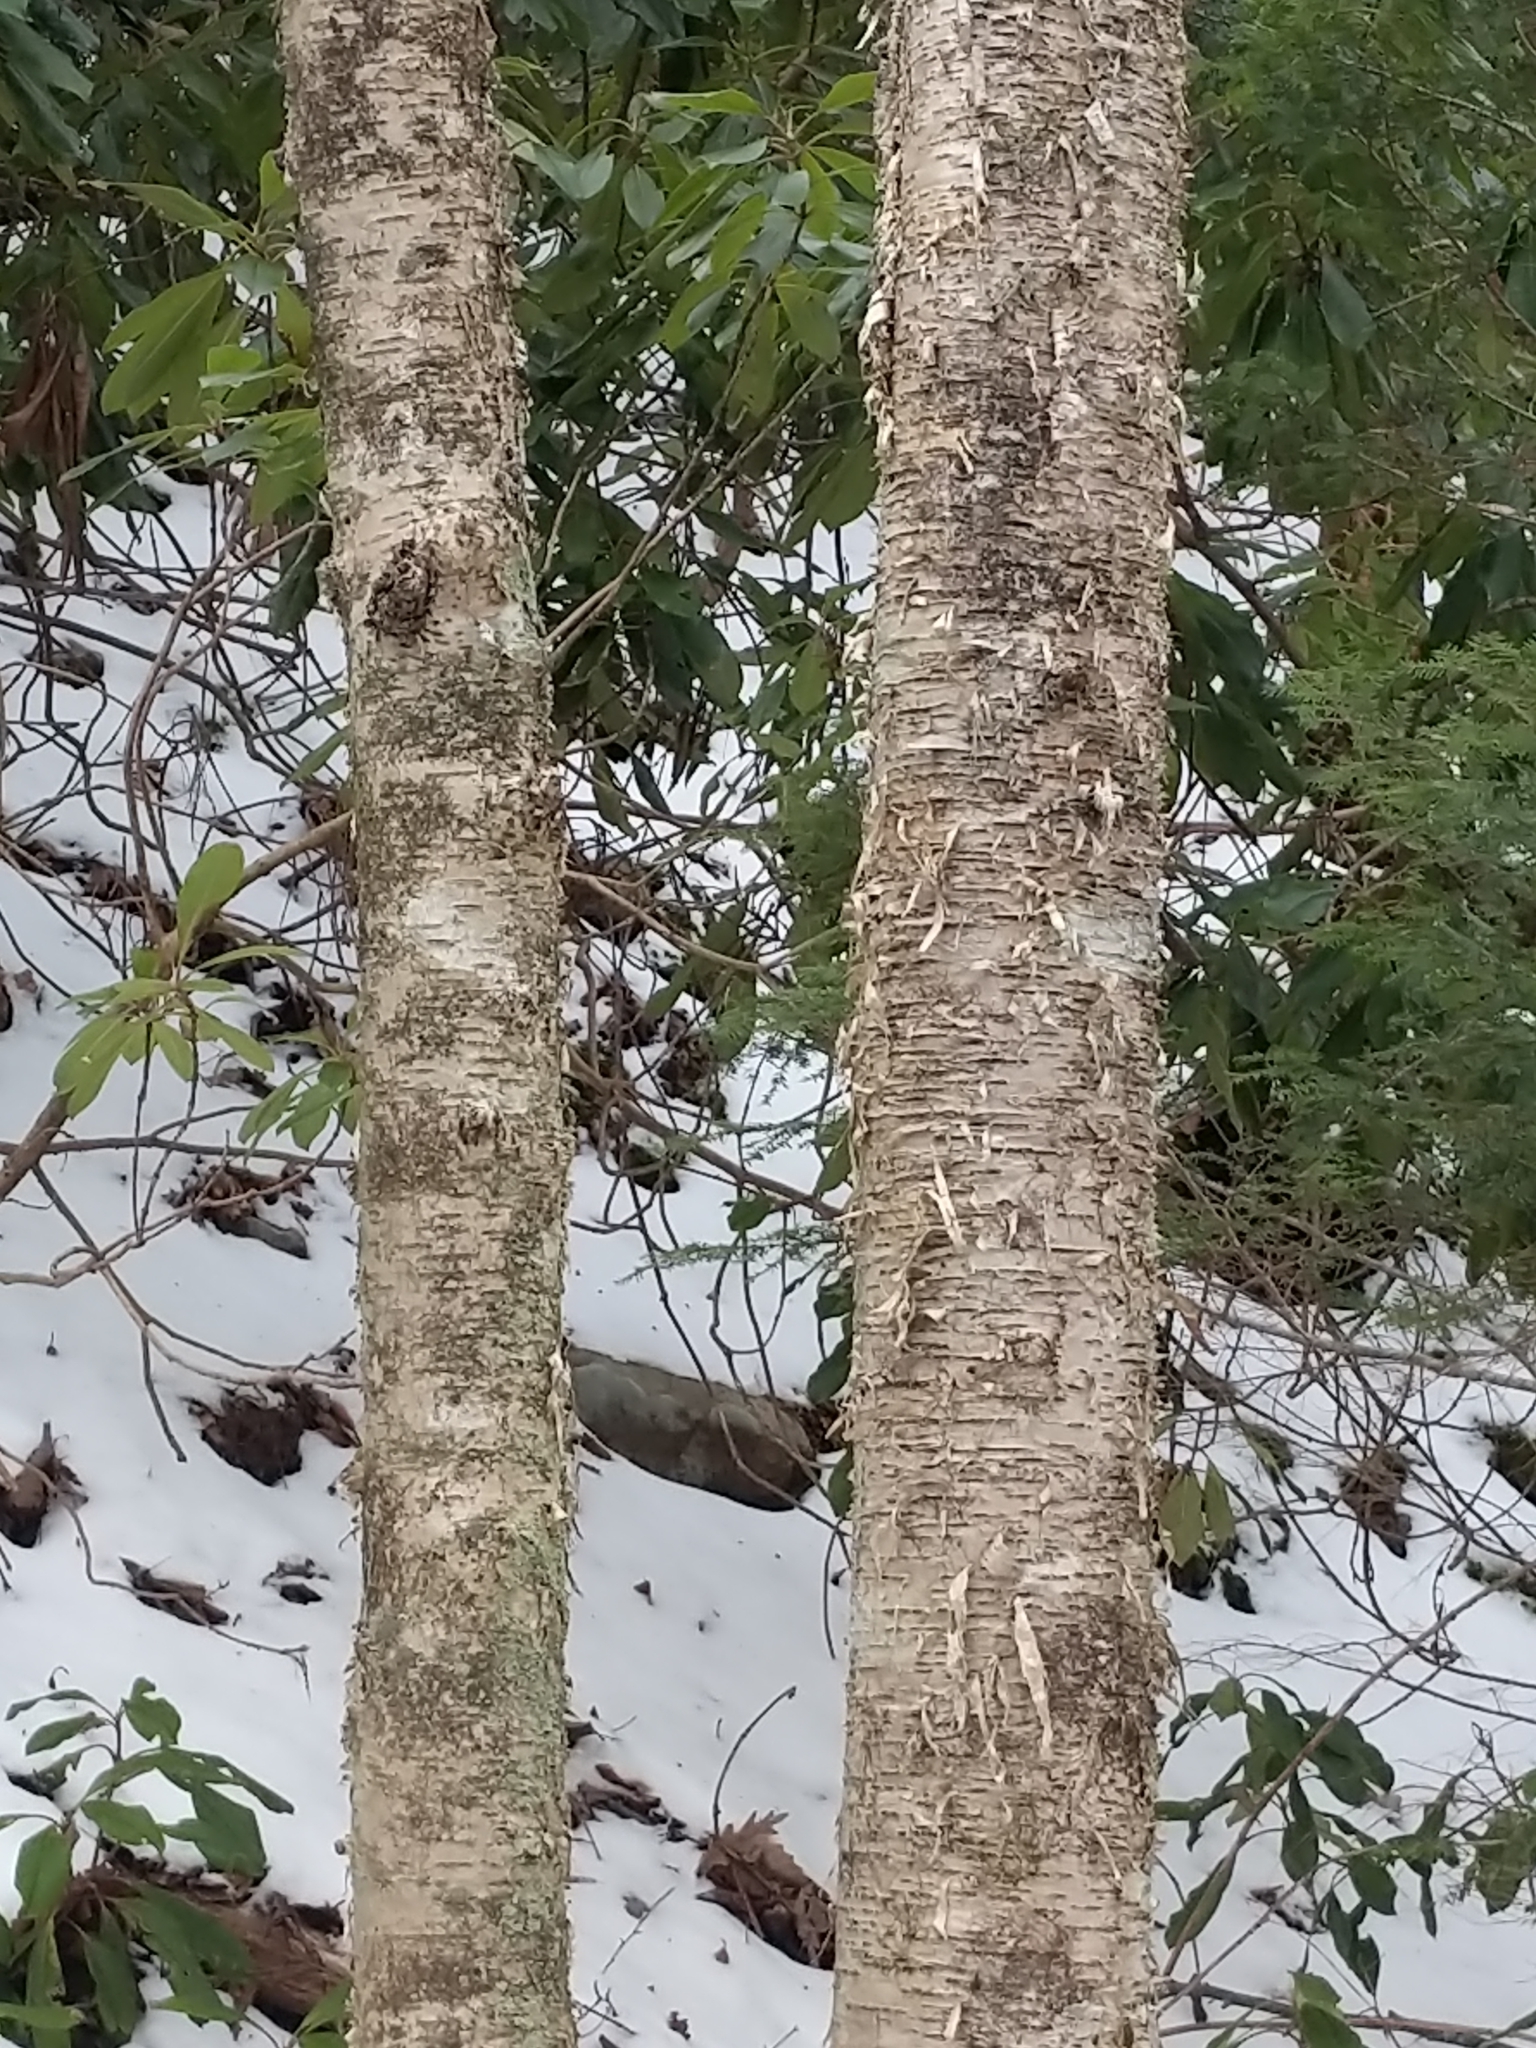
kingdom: Plantae
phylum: Tracheophyta
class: Magnoliopsida
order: Fagales
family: Betulaceae
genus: Betula
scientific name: Betula alleghaniensis
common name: Yellow birch
